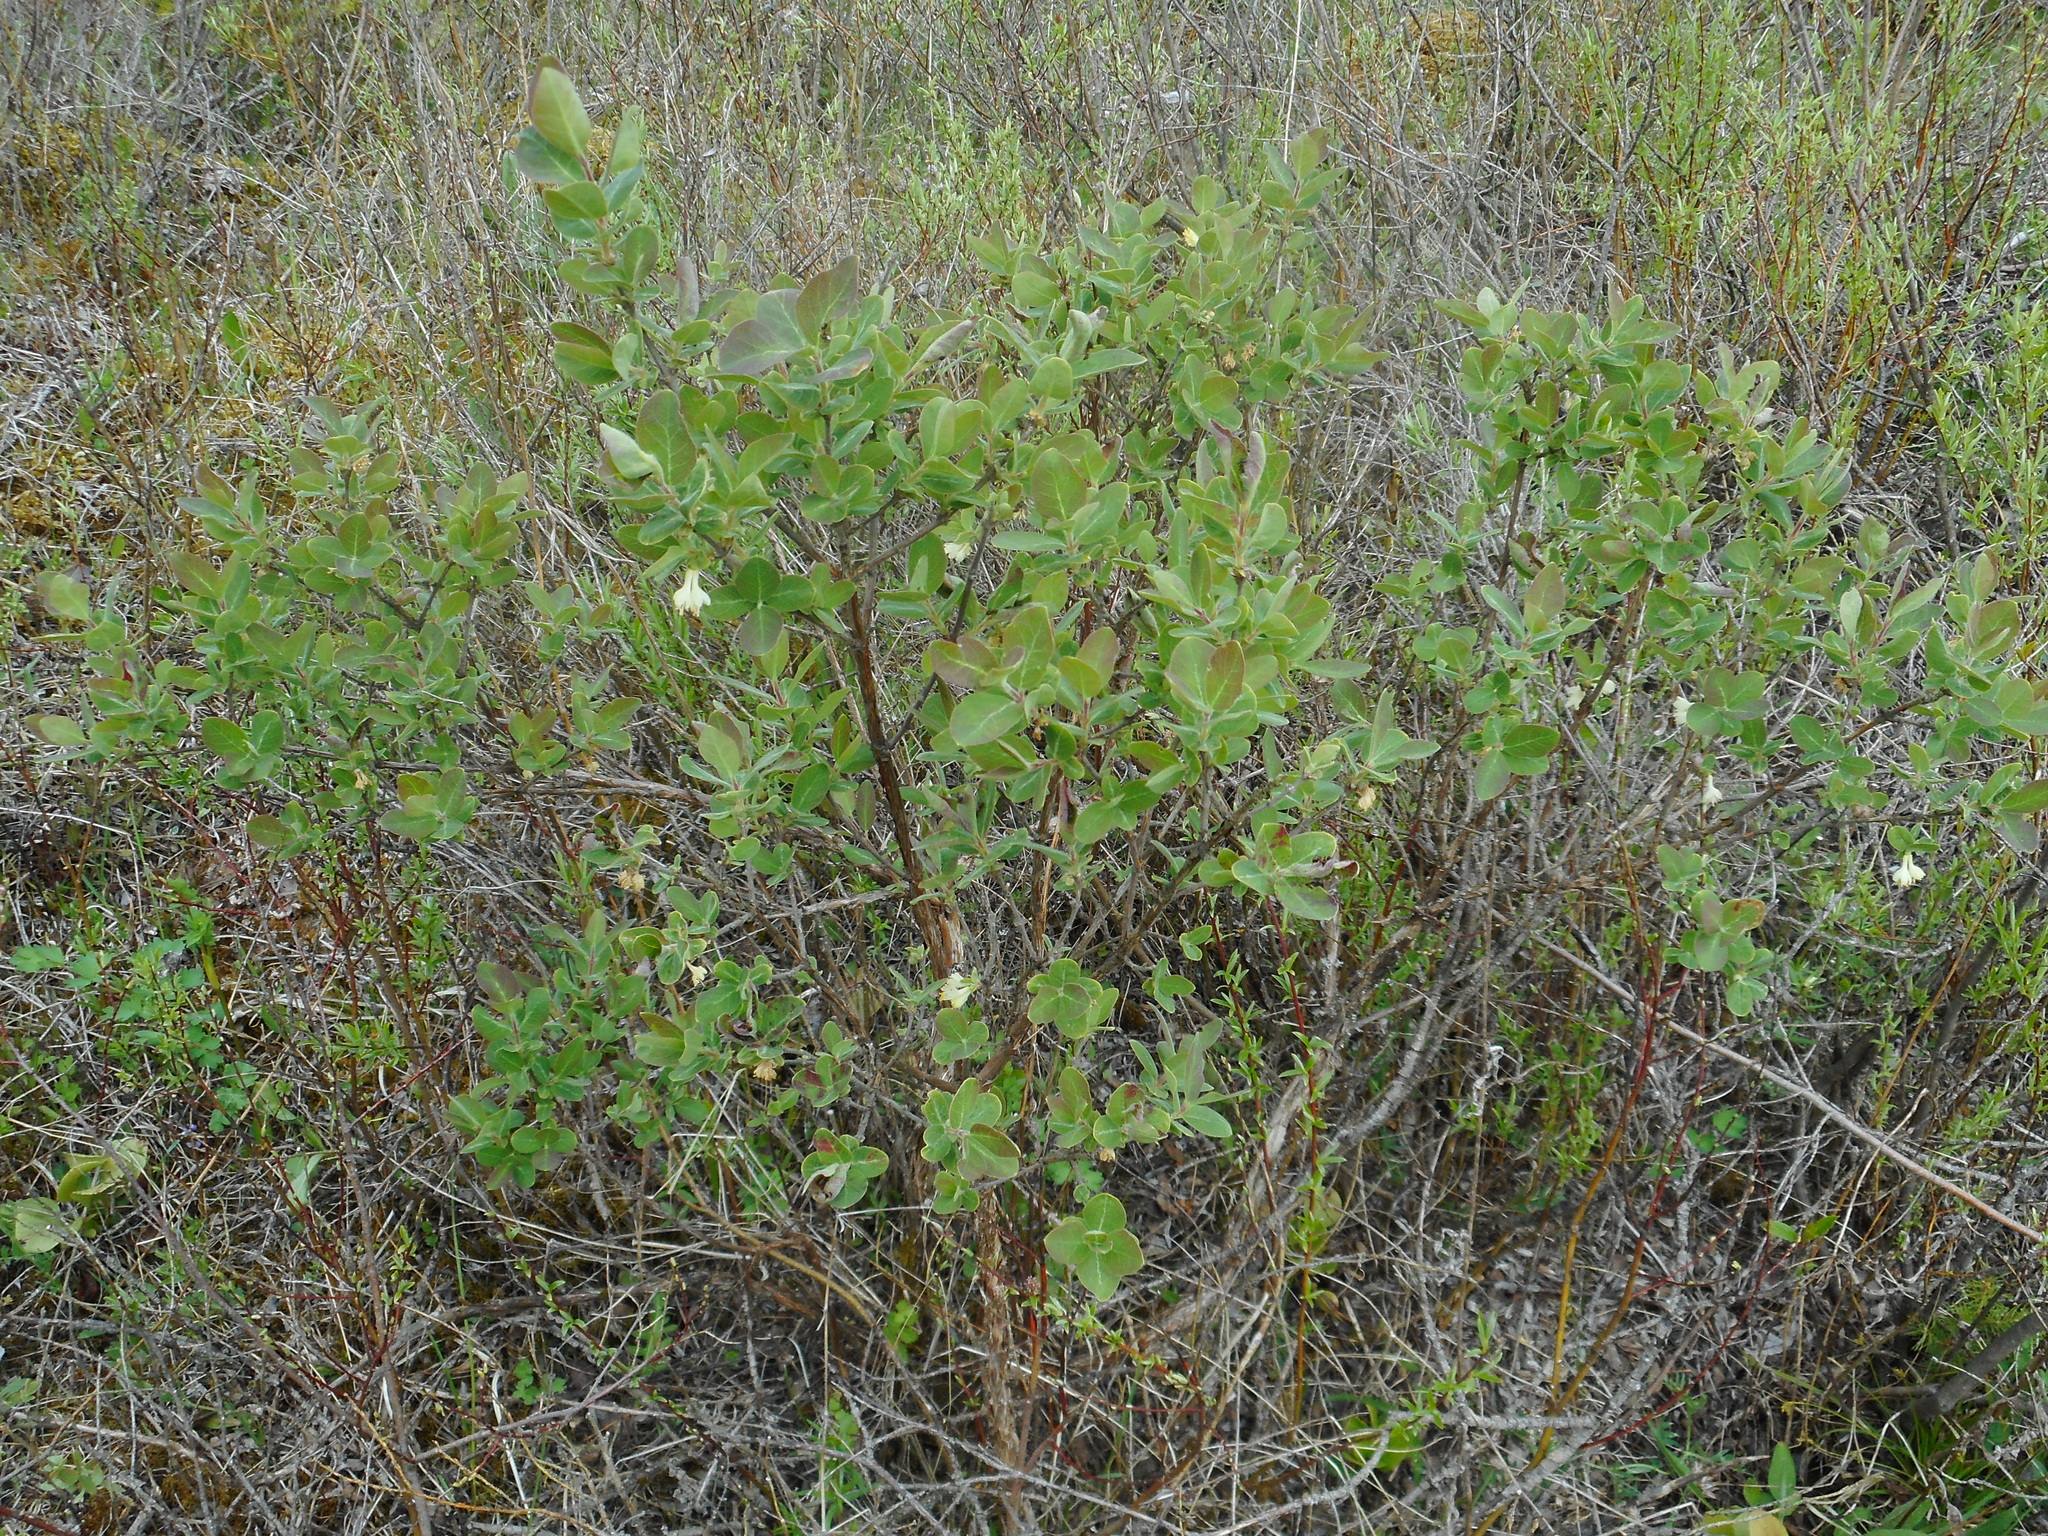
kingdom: Plantae
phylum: Tracheophyta
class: Magnoliopsida
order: Dipsacales
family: Caprifoliaceae
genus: Lonicera
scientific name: Lonicera caerulea
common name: Blue honeysuckle
